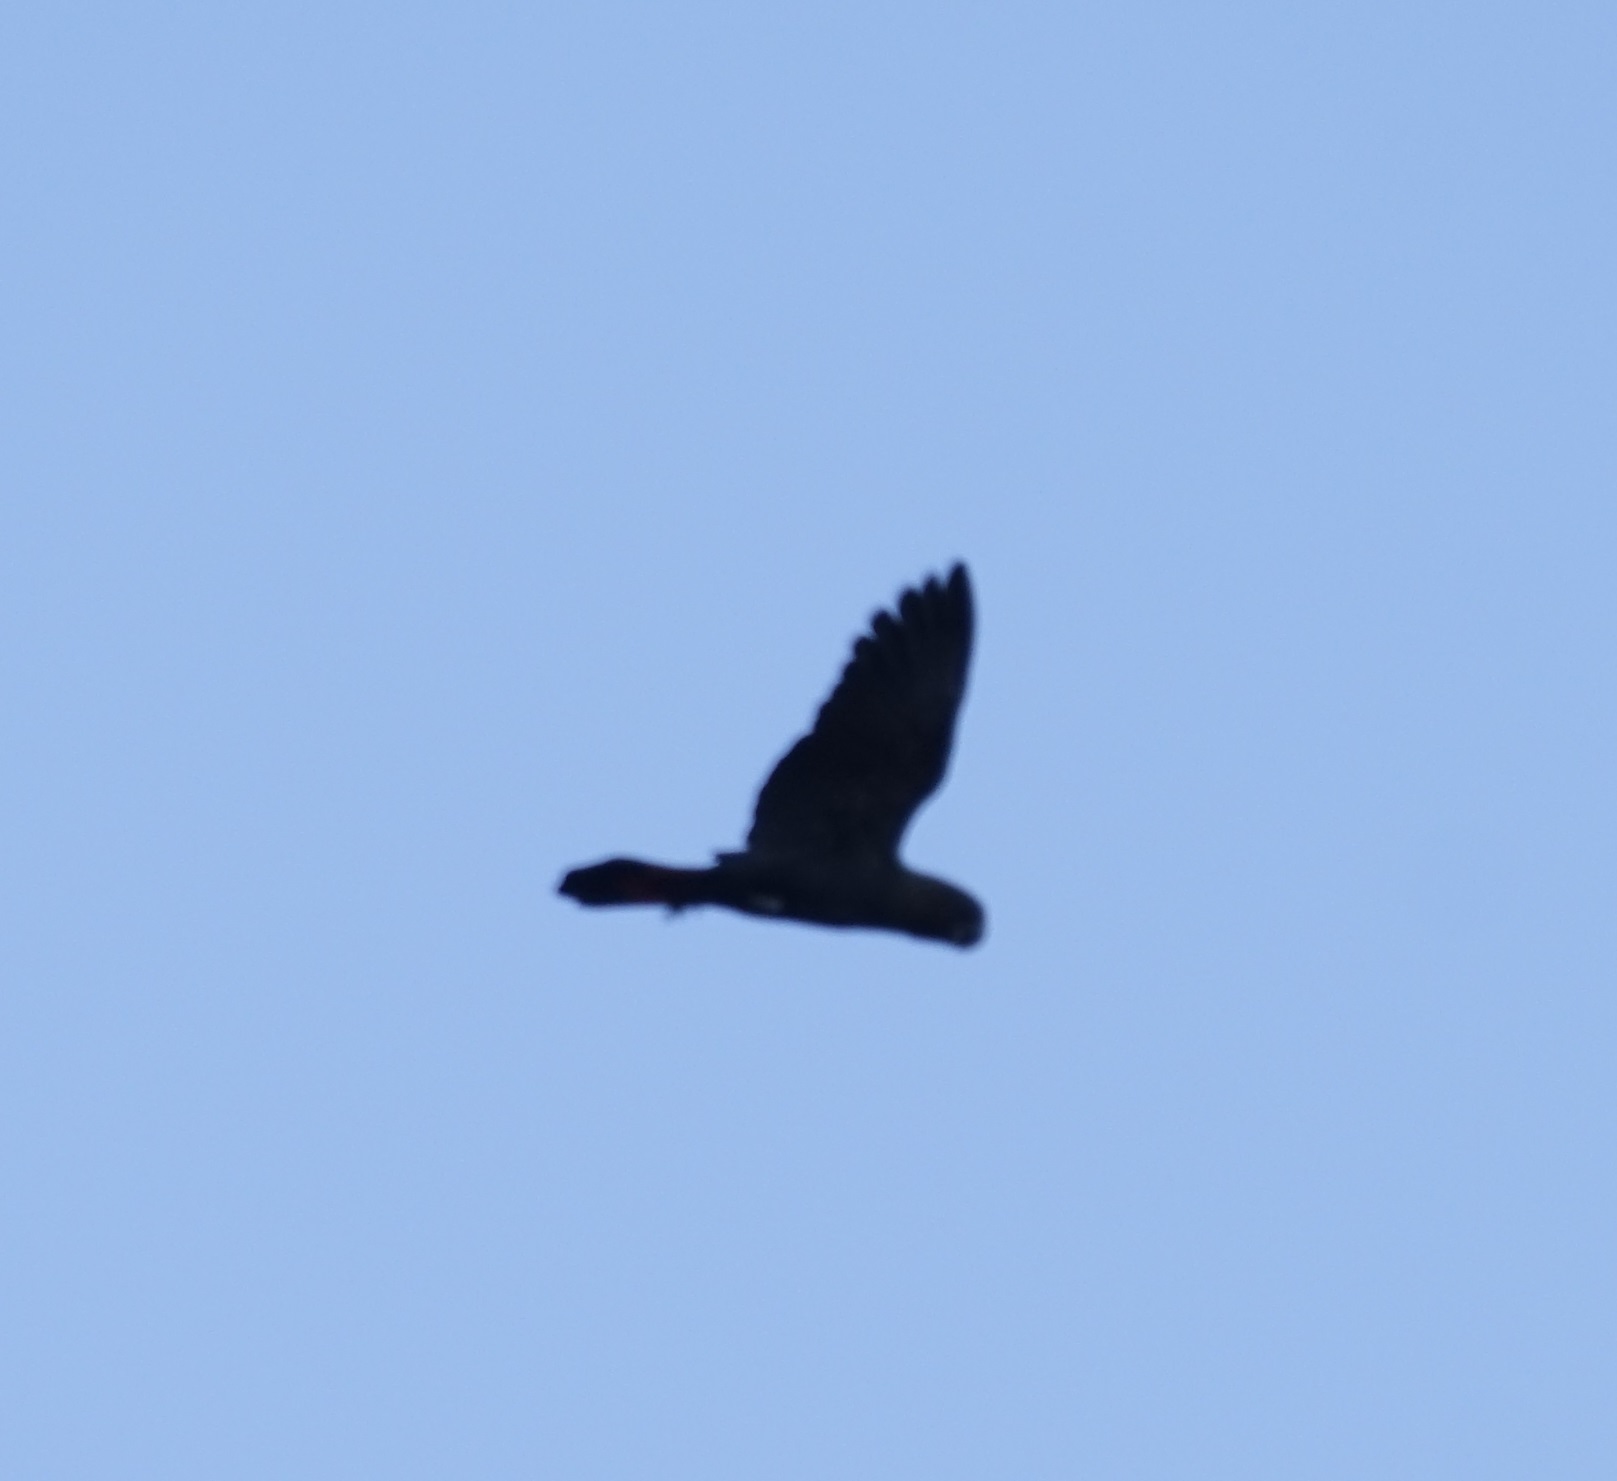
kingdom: Animalia
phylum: Chordata
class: Aves
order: Psittaciformes
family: Psittacidae
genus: Calyptorhynchus
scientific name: Calyptorhynchus lathami
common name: Glossy black cockatoo
